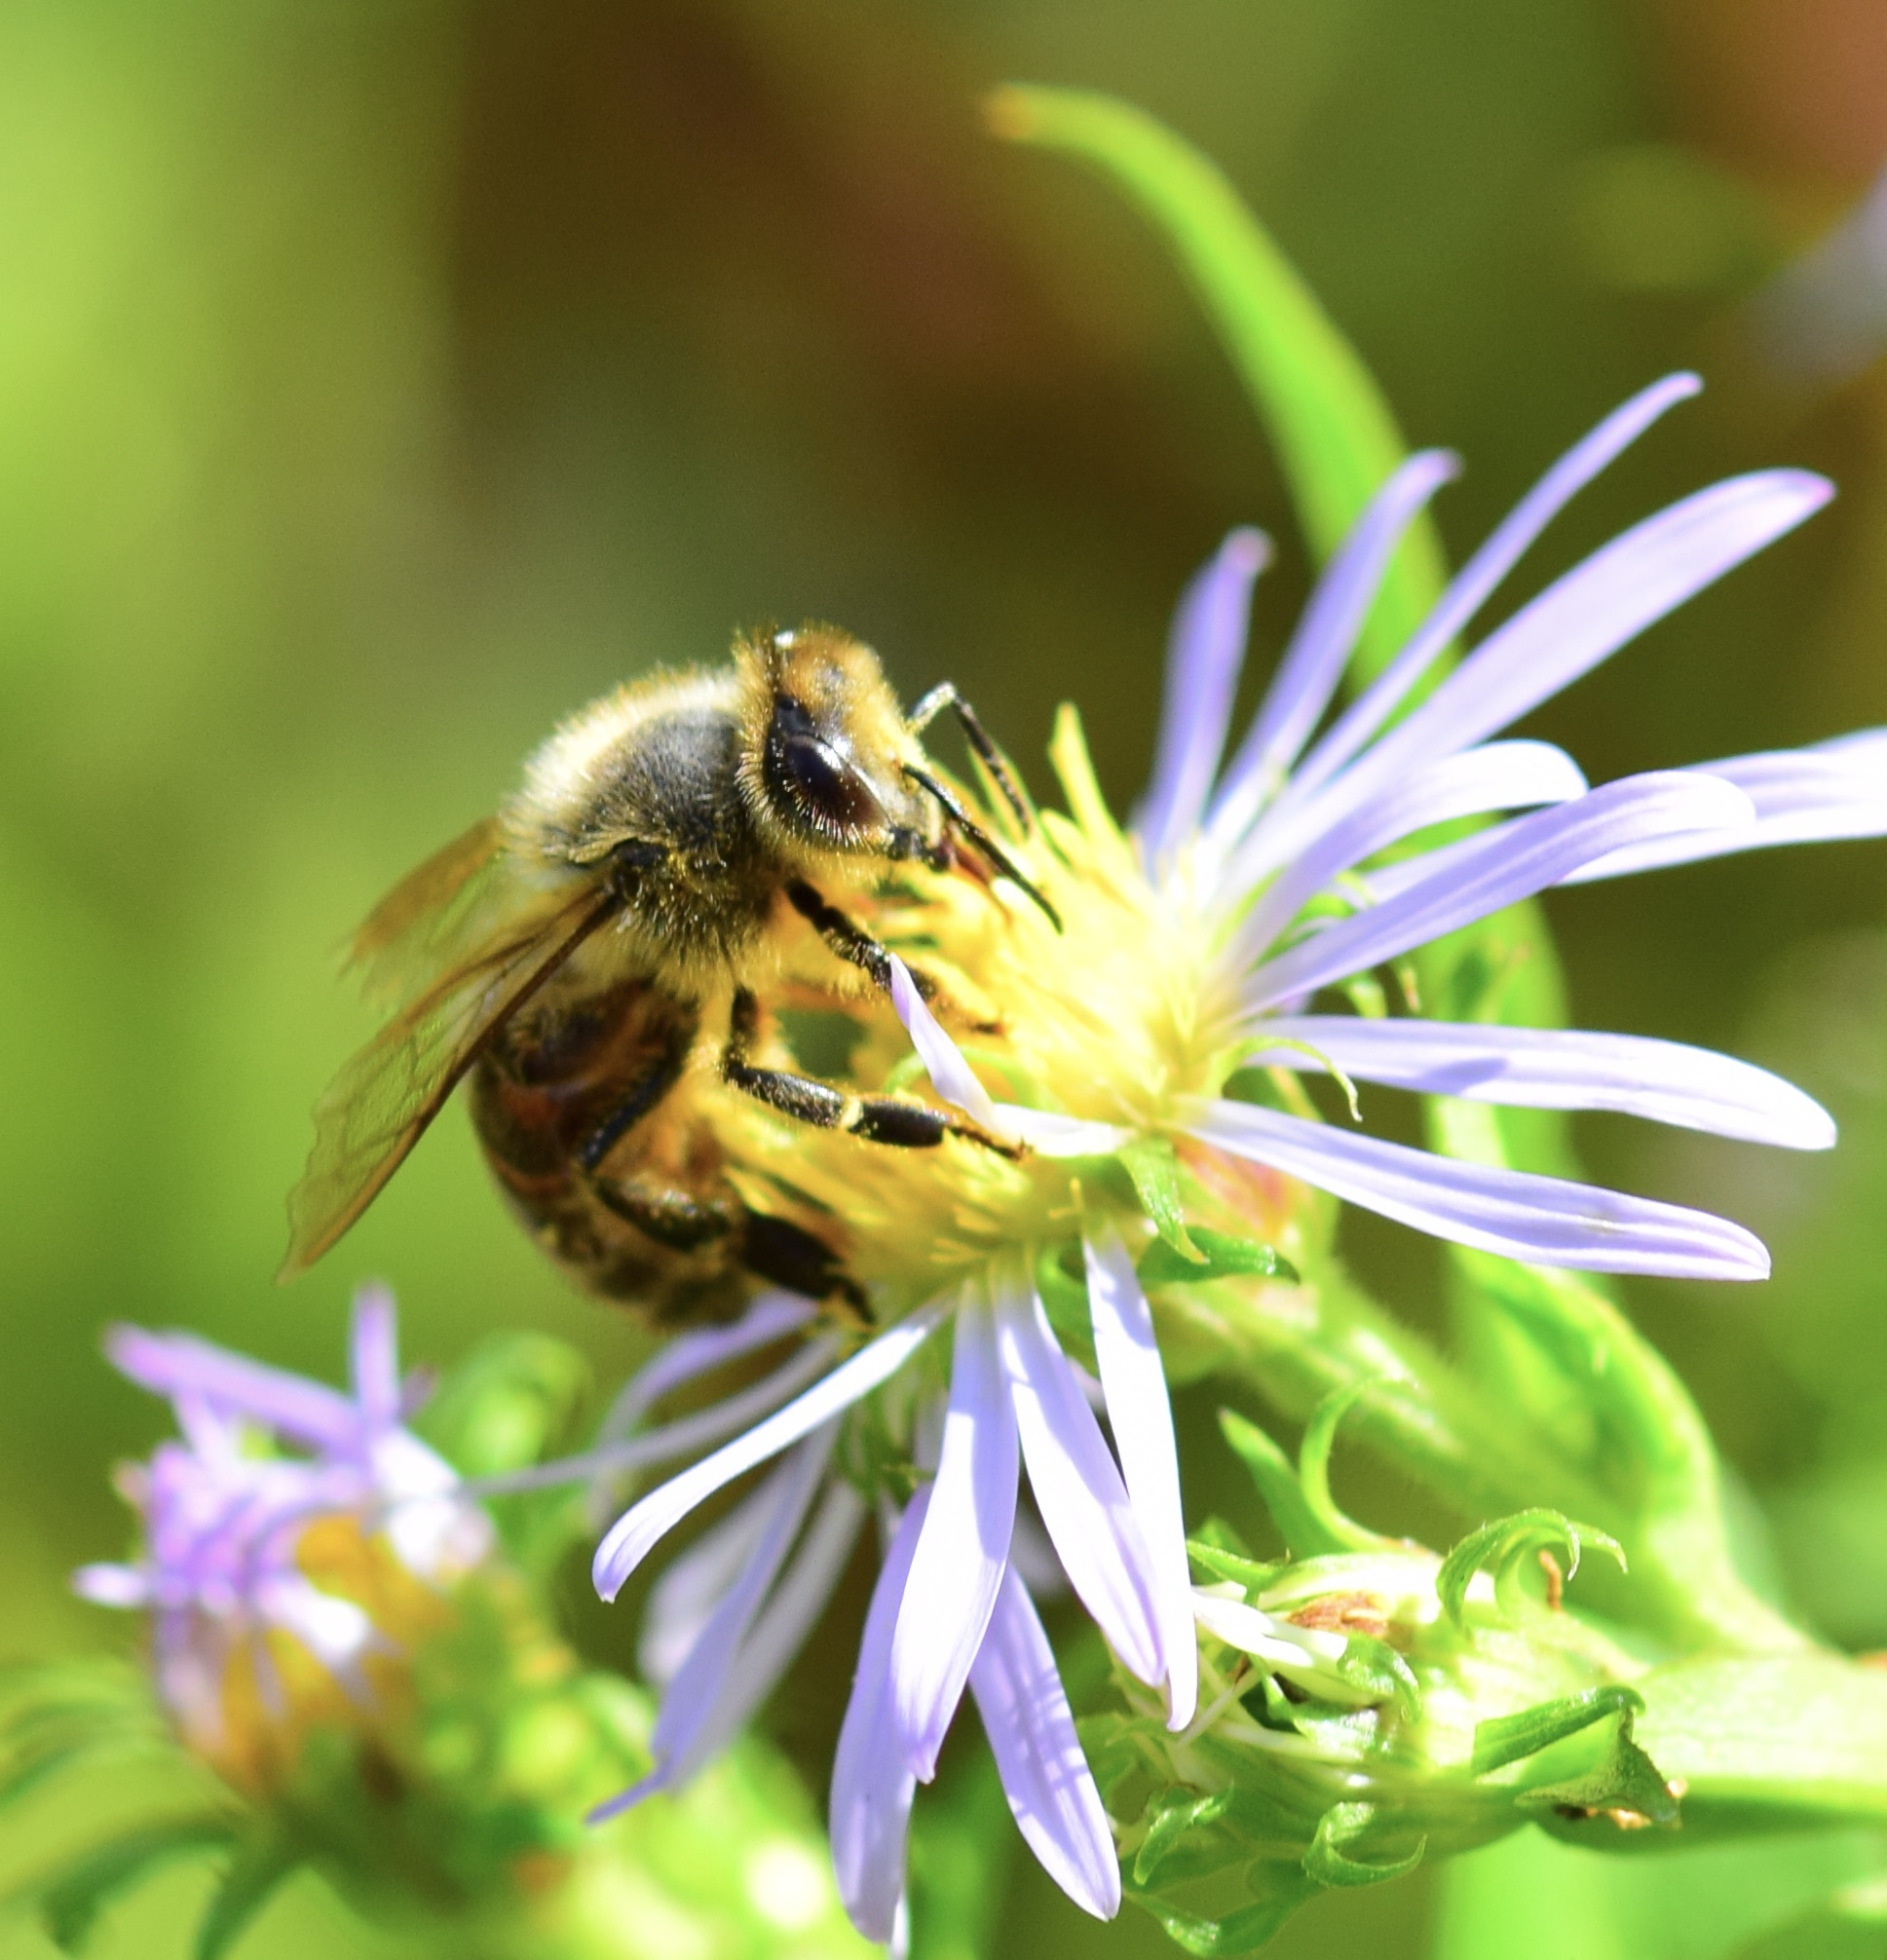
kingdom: Animalia
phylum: Arthropoda
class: Insecta
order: Hymenoptera
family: Apidae
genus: Apis
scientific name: Apis mellifera
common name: Honey bee
